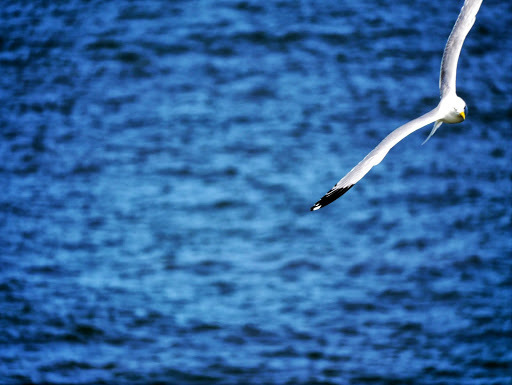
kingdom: Animalia
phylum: Chordata
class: Aves
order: Charadriiformes
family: Laridae
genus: Larus
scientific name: Larus argentatus
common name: Herring gull
